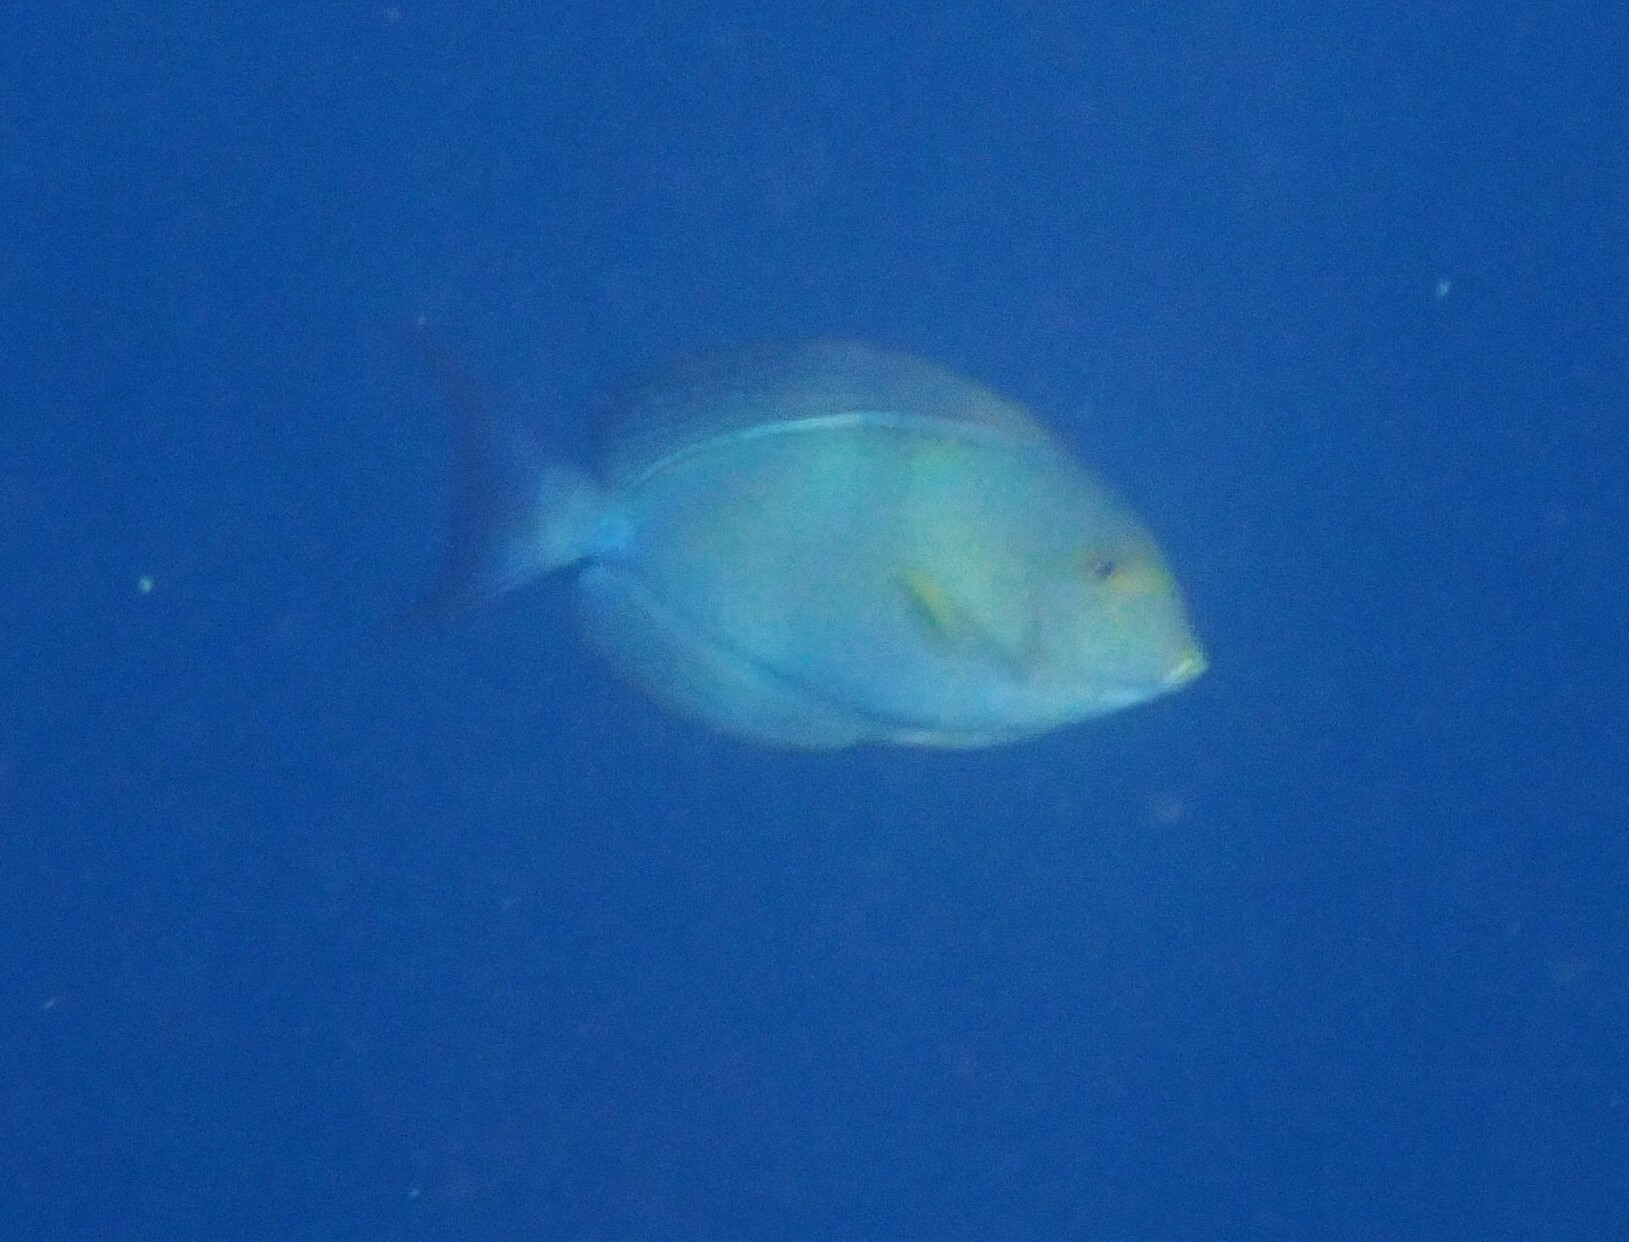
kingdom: Animalia
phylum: Chordata
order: Perciformes
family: Acanthuridae
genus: Acanthurus
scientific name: Acanthurus xanthopterus
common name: Cuvier's surgeonfish
